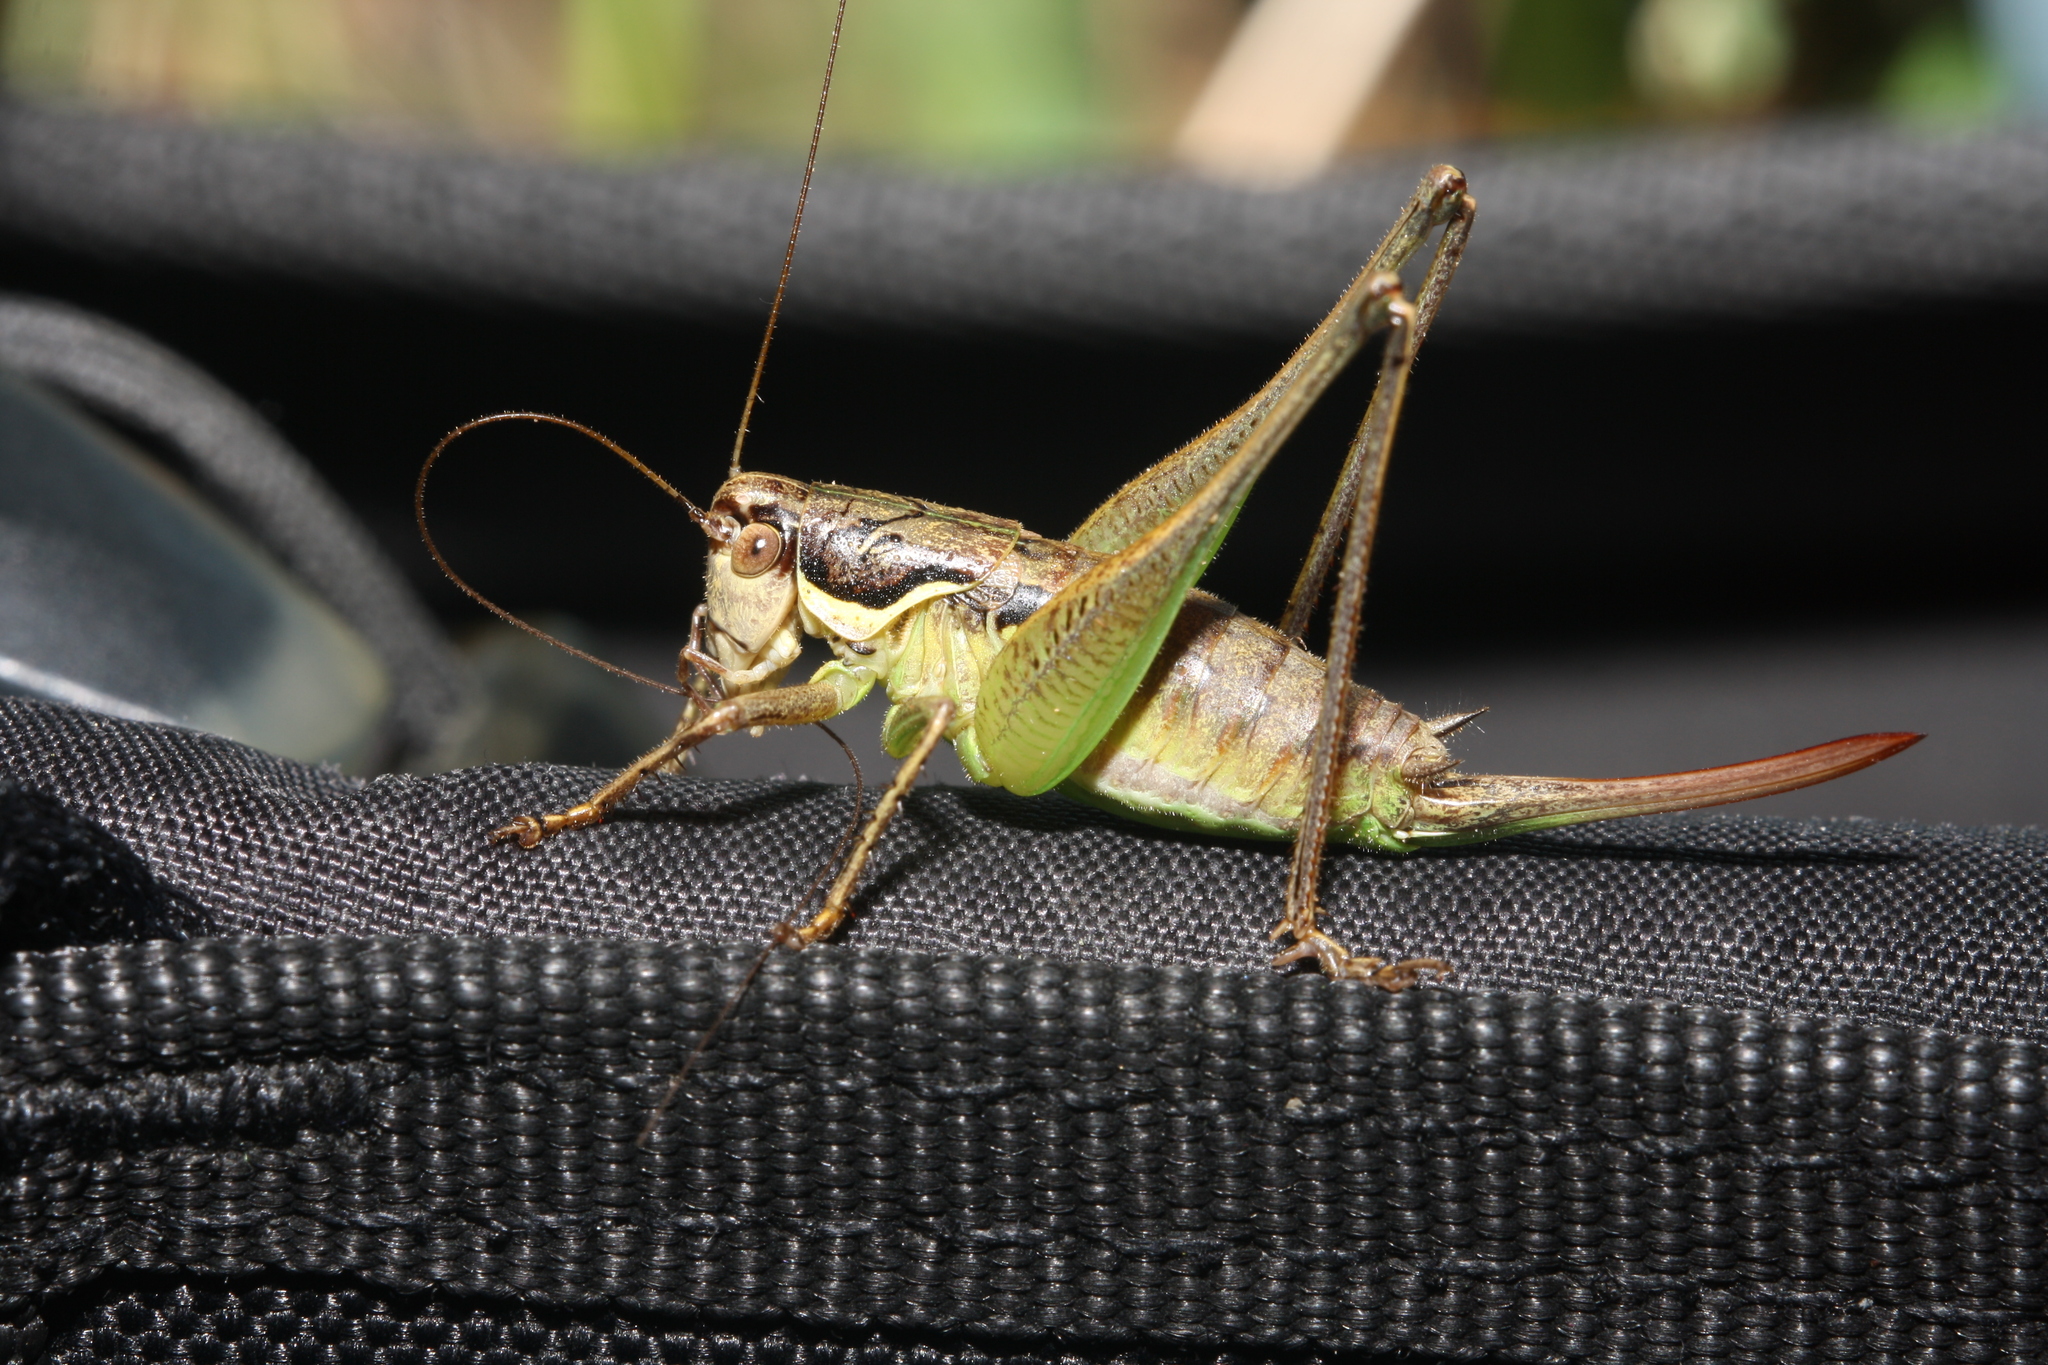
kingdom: Animalia
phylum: Arthropoda
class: Insecta
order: Orthoptera
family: Tettigoniidae
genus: Pachytrachis
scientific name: Pachytrachis gracilis
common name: Graceful bush-cricket
